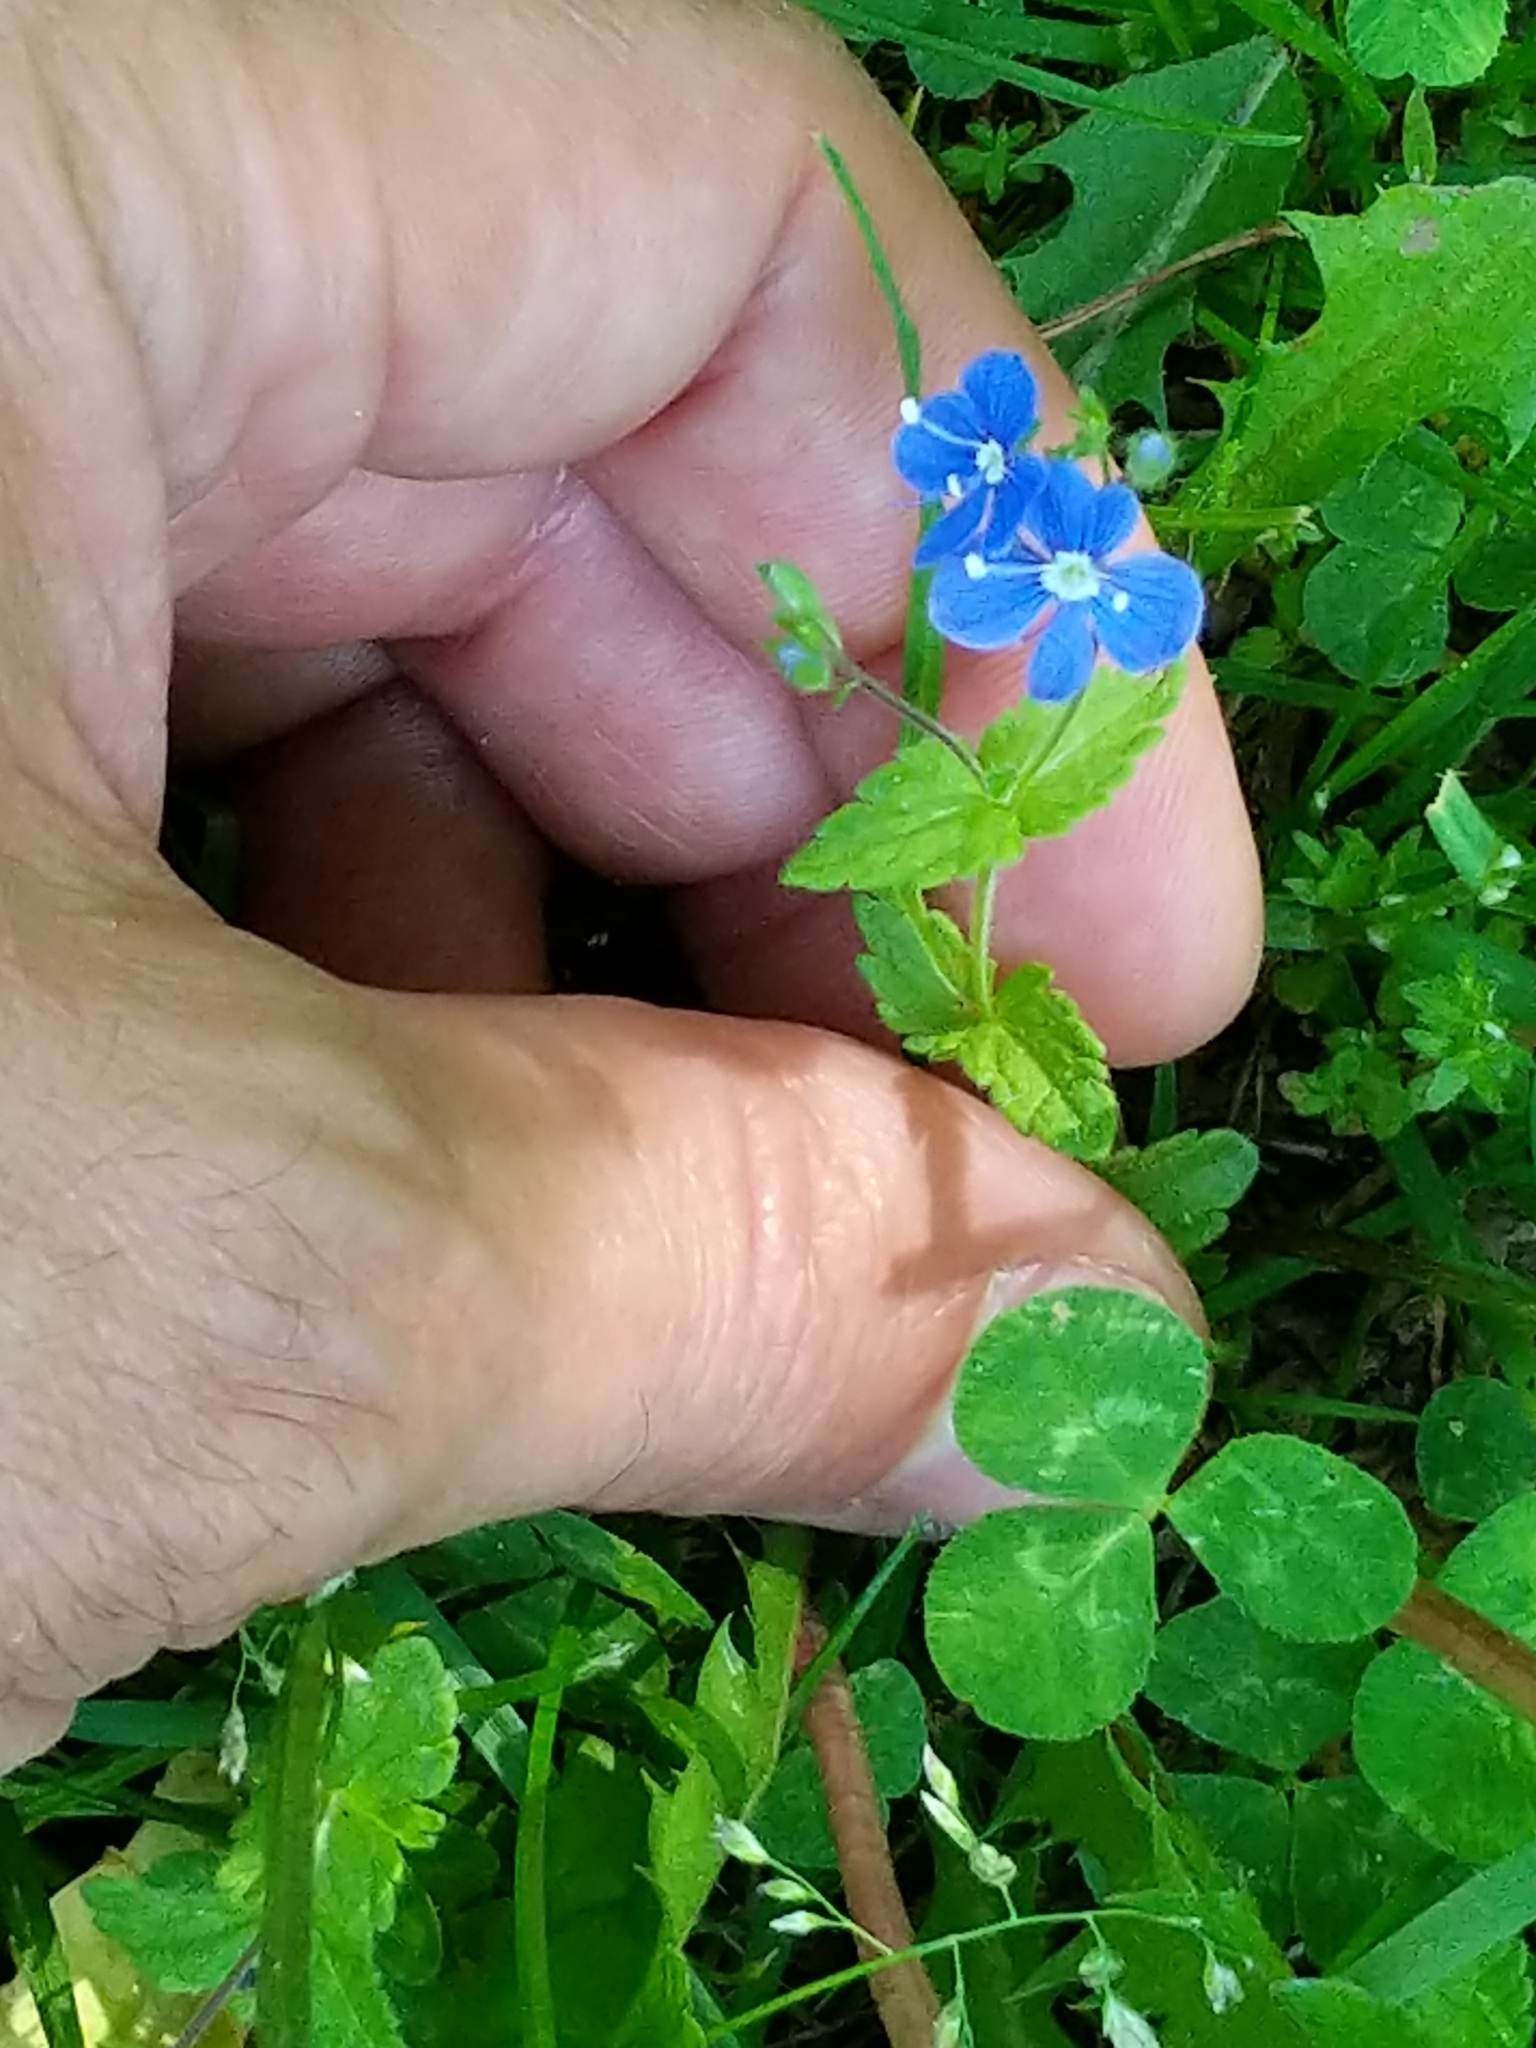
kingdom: Plantae
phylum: Tracheophyta
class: Magnoliopsida
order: Lamiales
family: Plantaginaceae
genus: Veronica
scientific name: Veronica chamaedrys
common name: Germander speedwell
